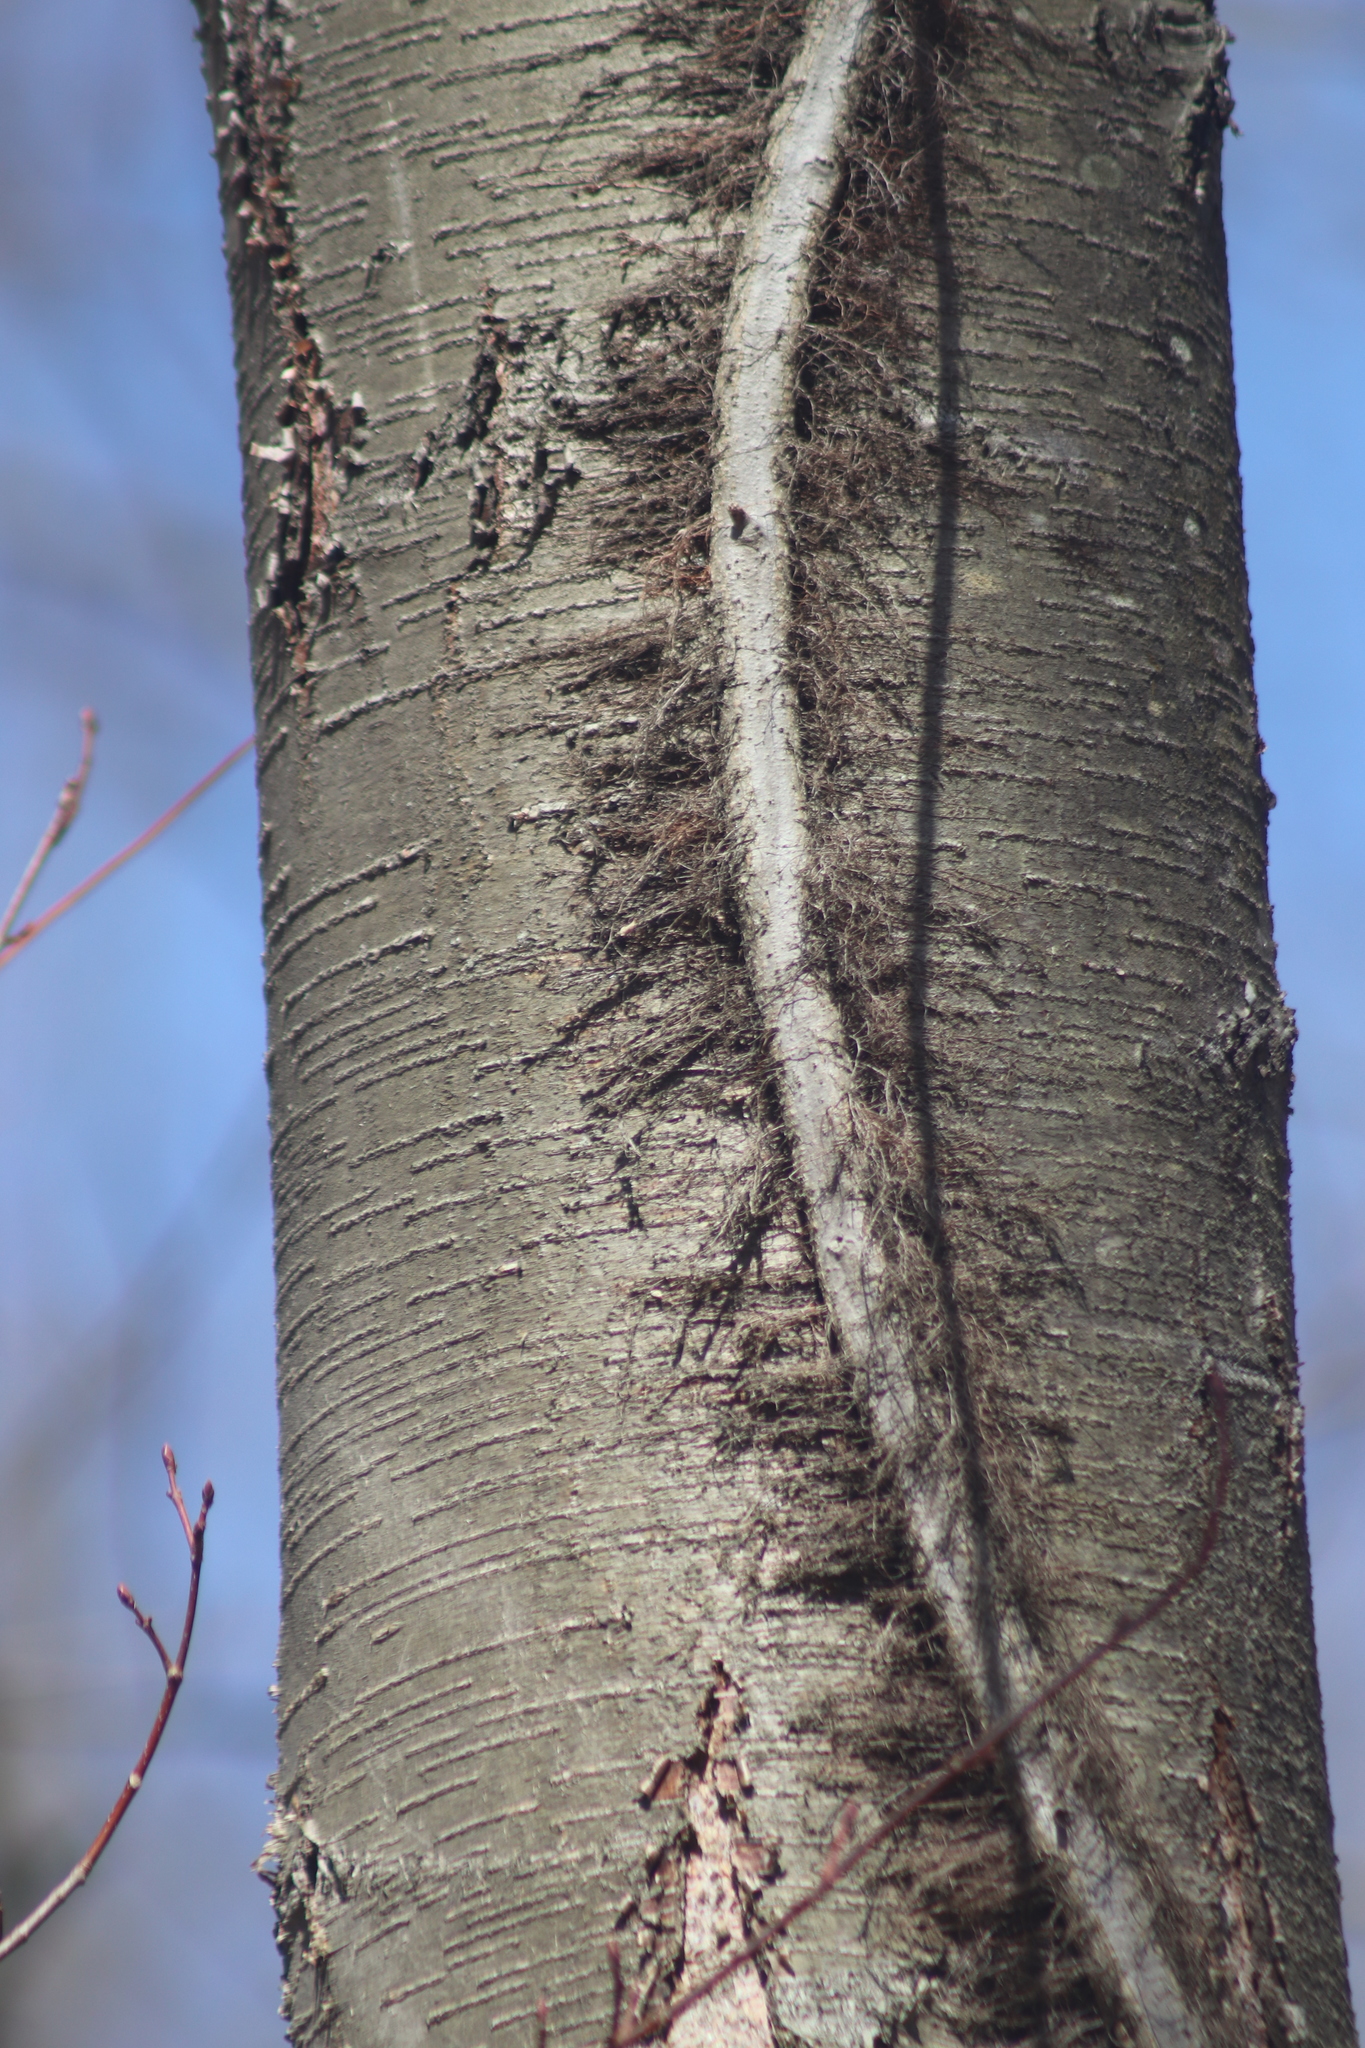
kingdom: Plantae
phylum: Tracheophyta
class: Magnoliopsida
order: Fagales
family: Betulaceae
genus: Betula
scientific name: Betula lenta
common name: Black birch
